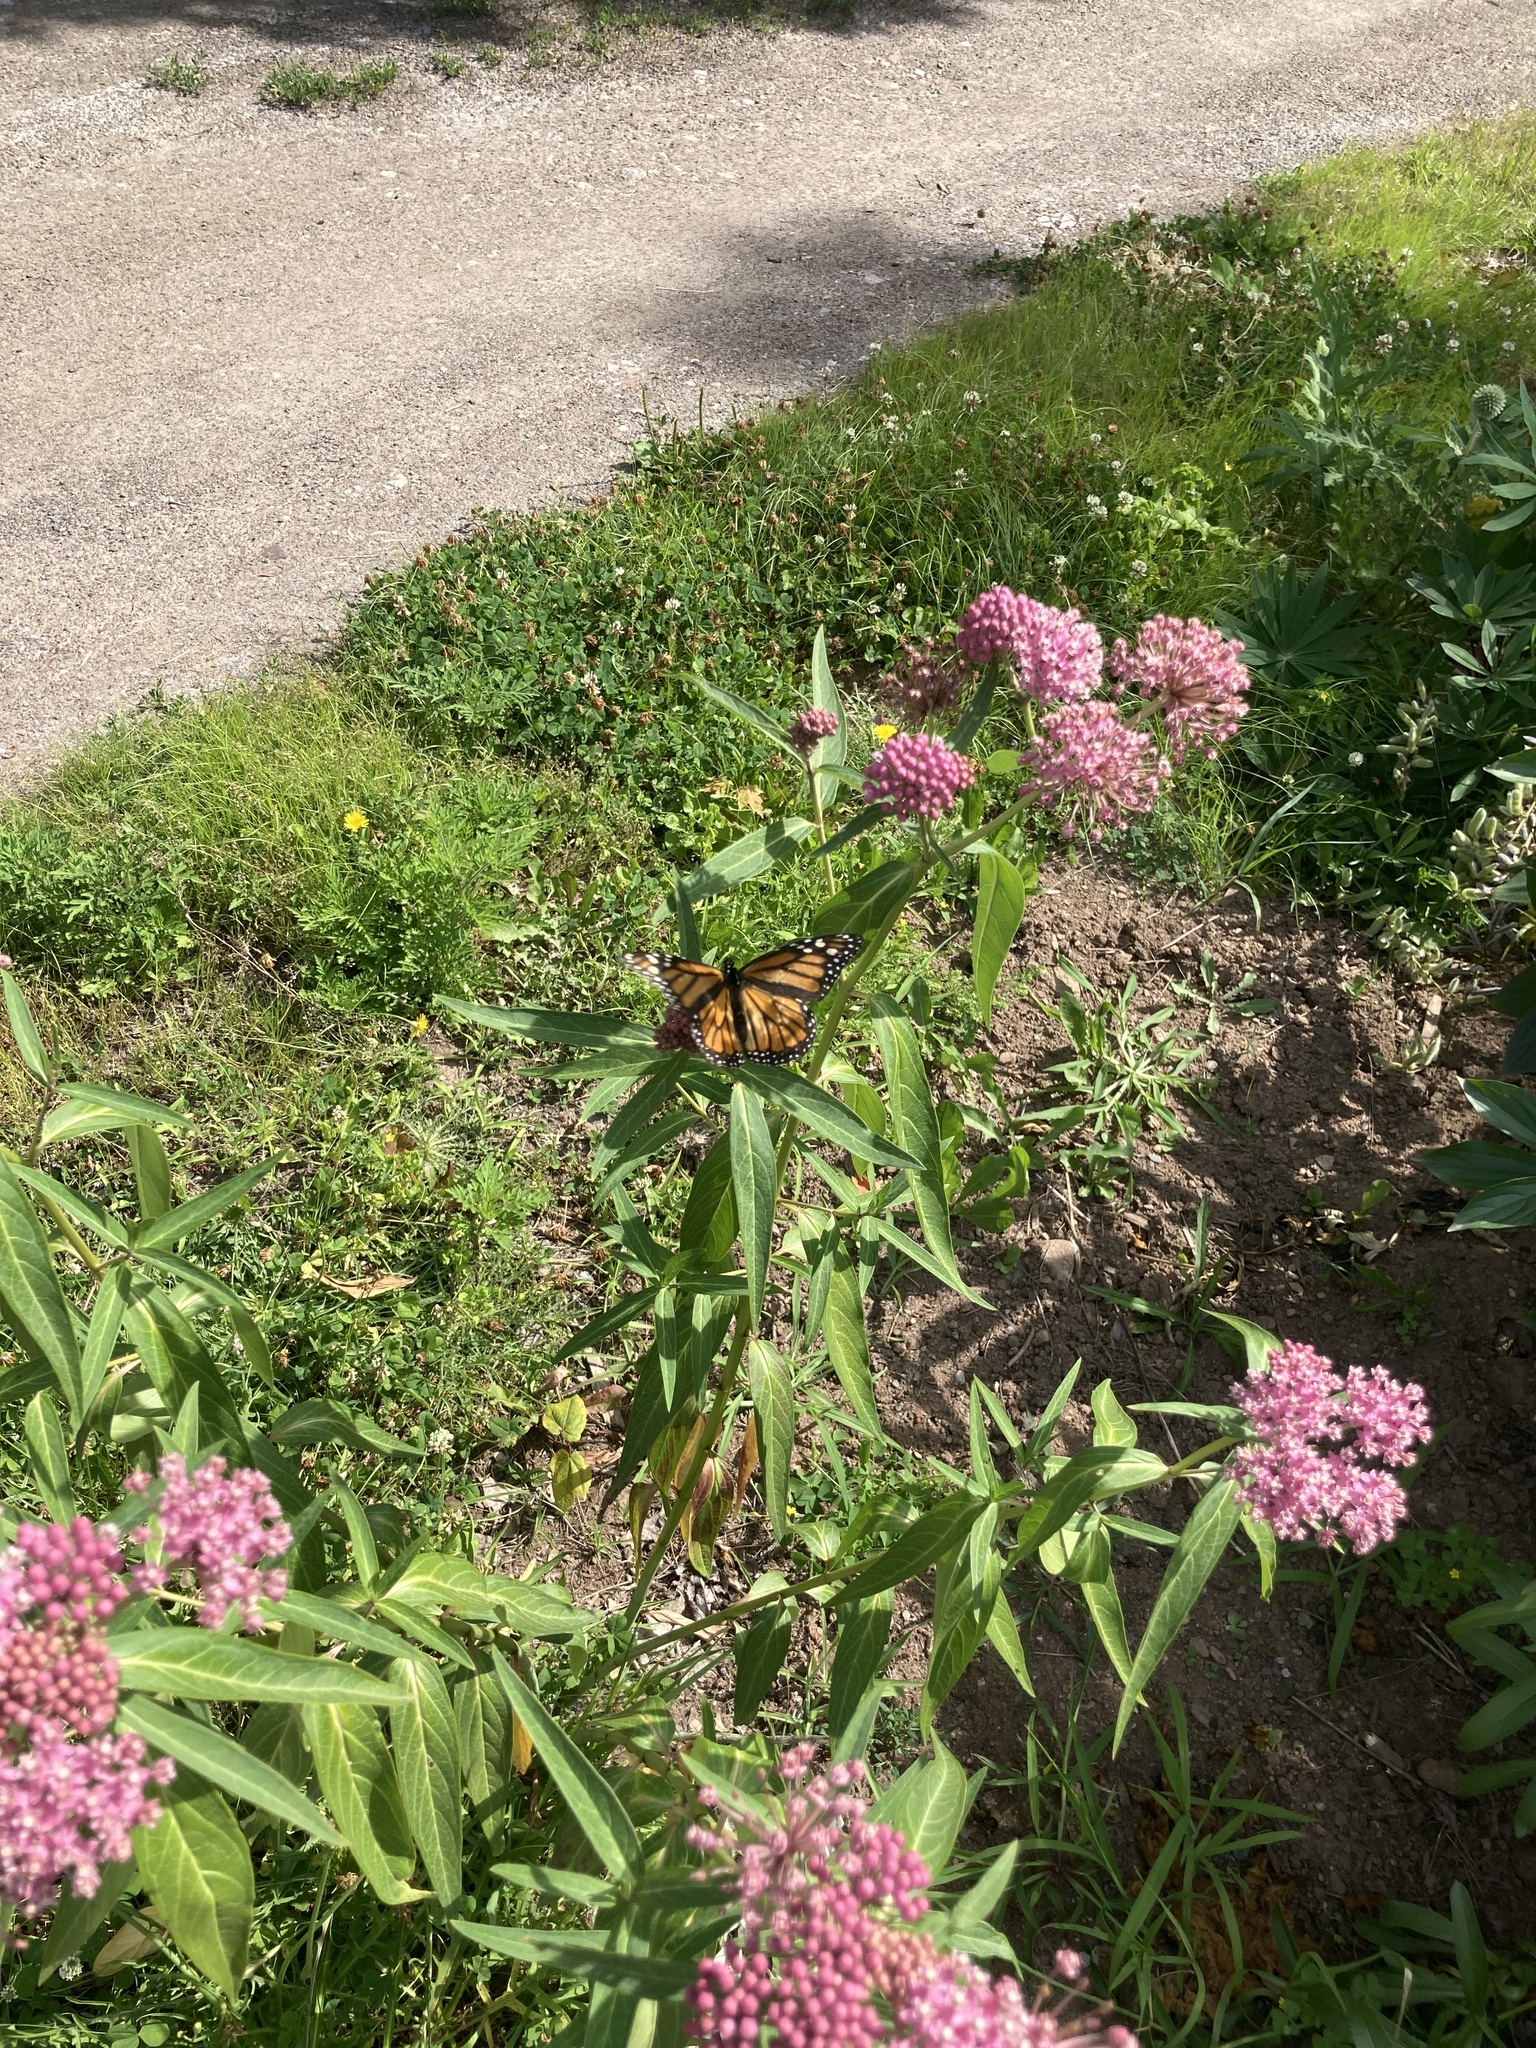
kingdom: Animalia
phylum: Arthropoda
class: Insecta
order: Lepidoptera
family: Nymphalidae
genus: Danaus
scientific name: Danaus plexippus
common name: Monarch
